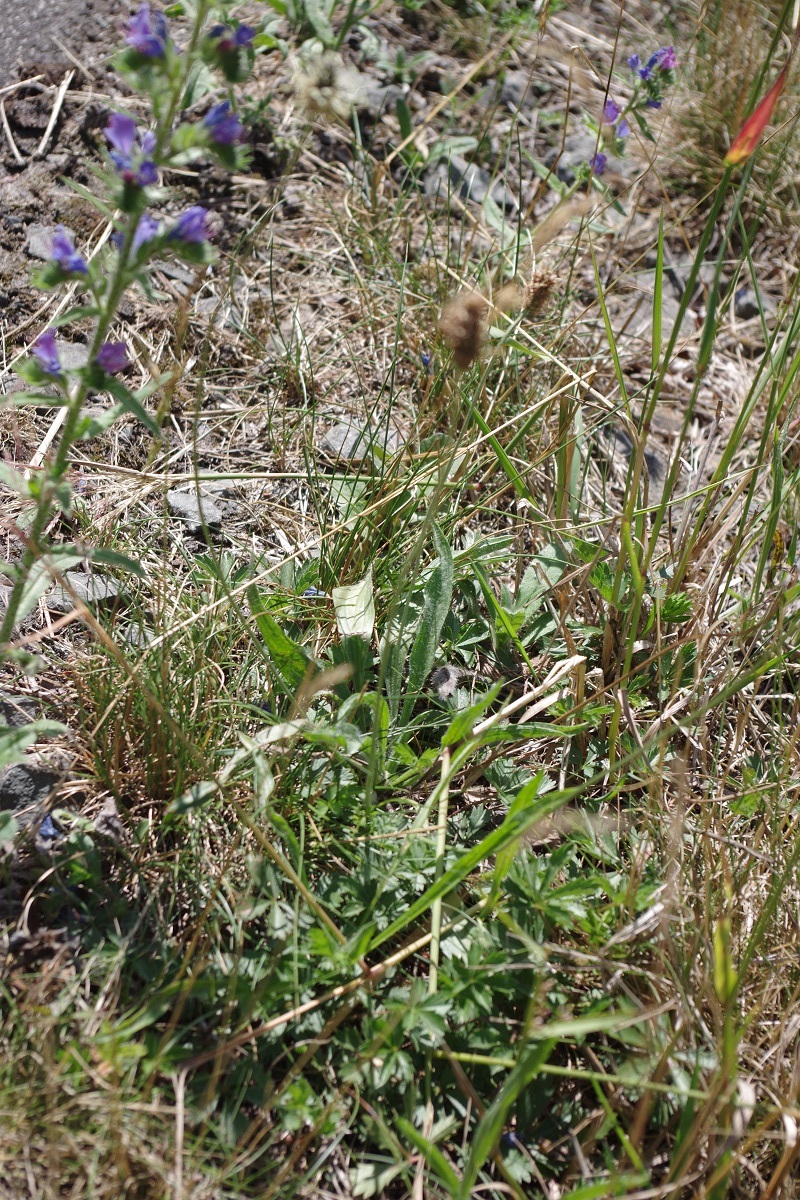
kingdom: Plantae
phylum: Tracheophyta
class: Magnoliopsida
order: Lamiales
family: Plantaginaceae
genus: Plantago
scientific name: Plantago lanceolata
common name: Ribwort plantain
